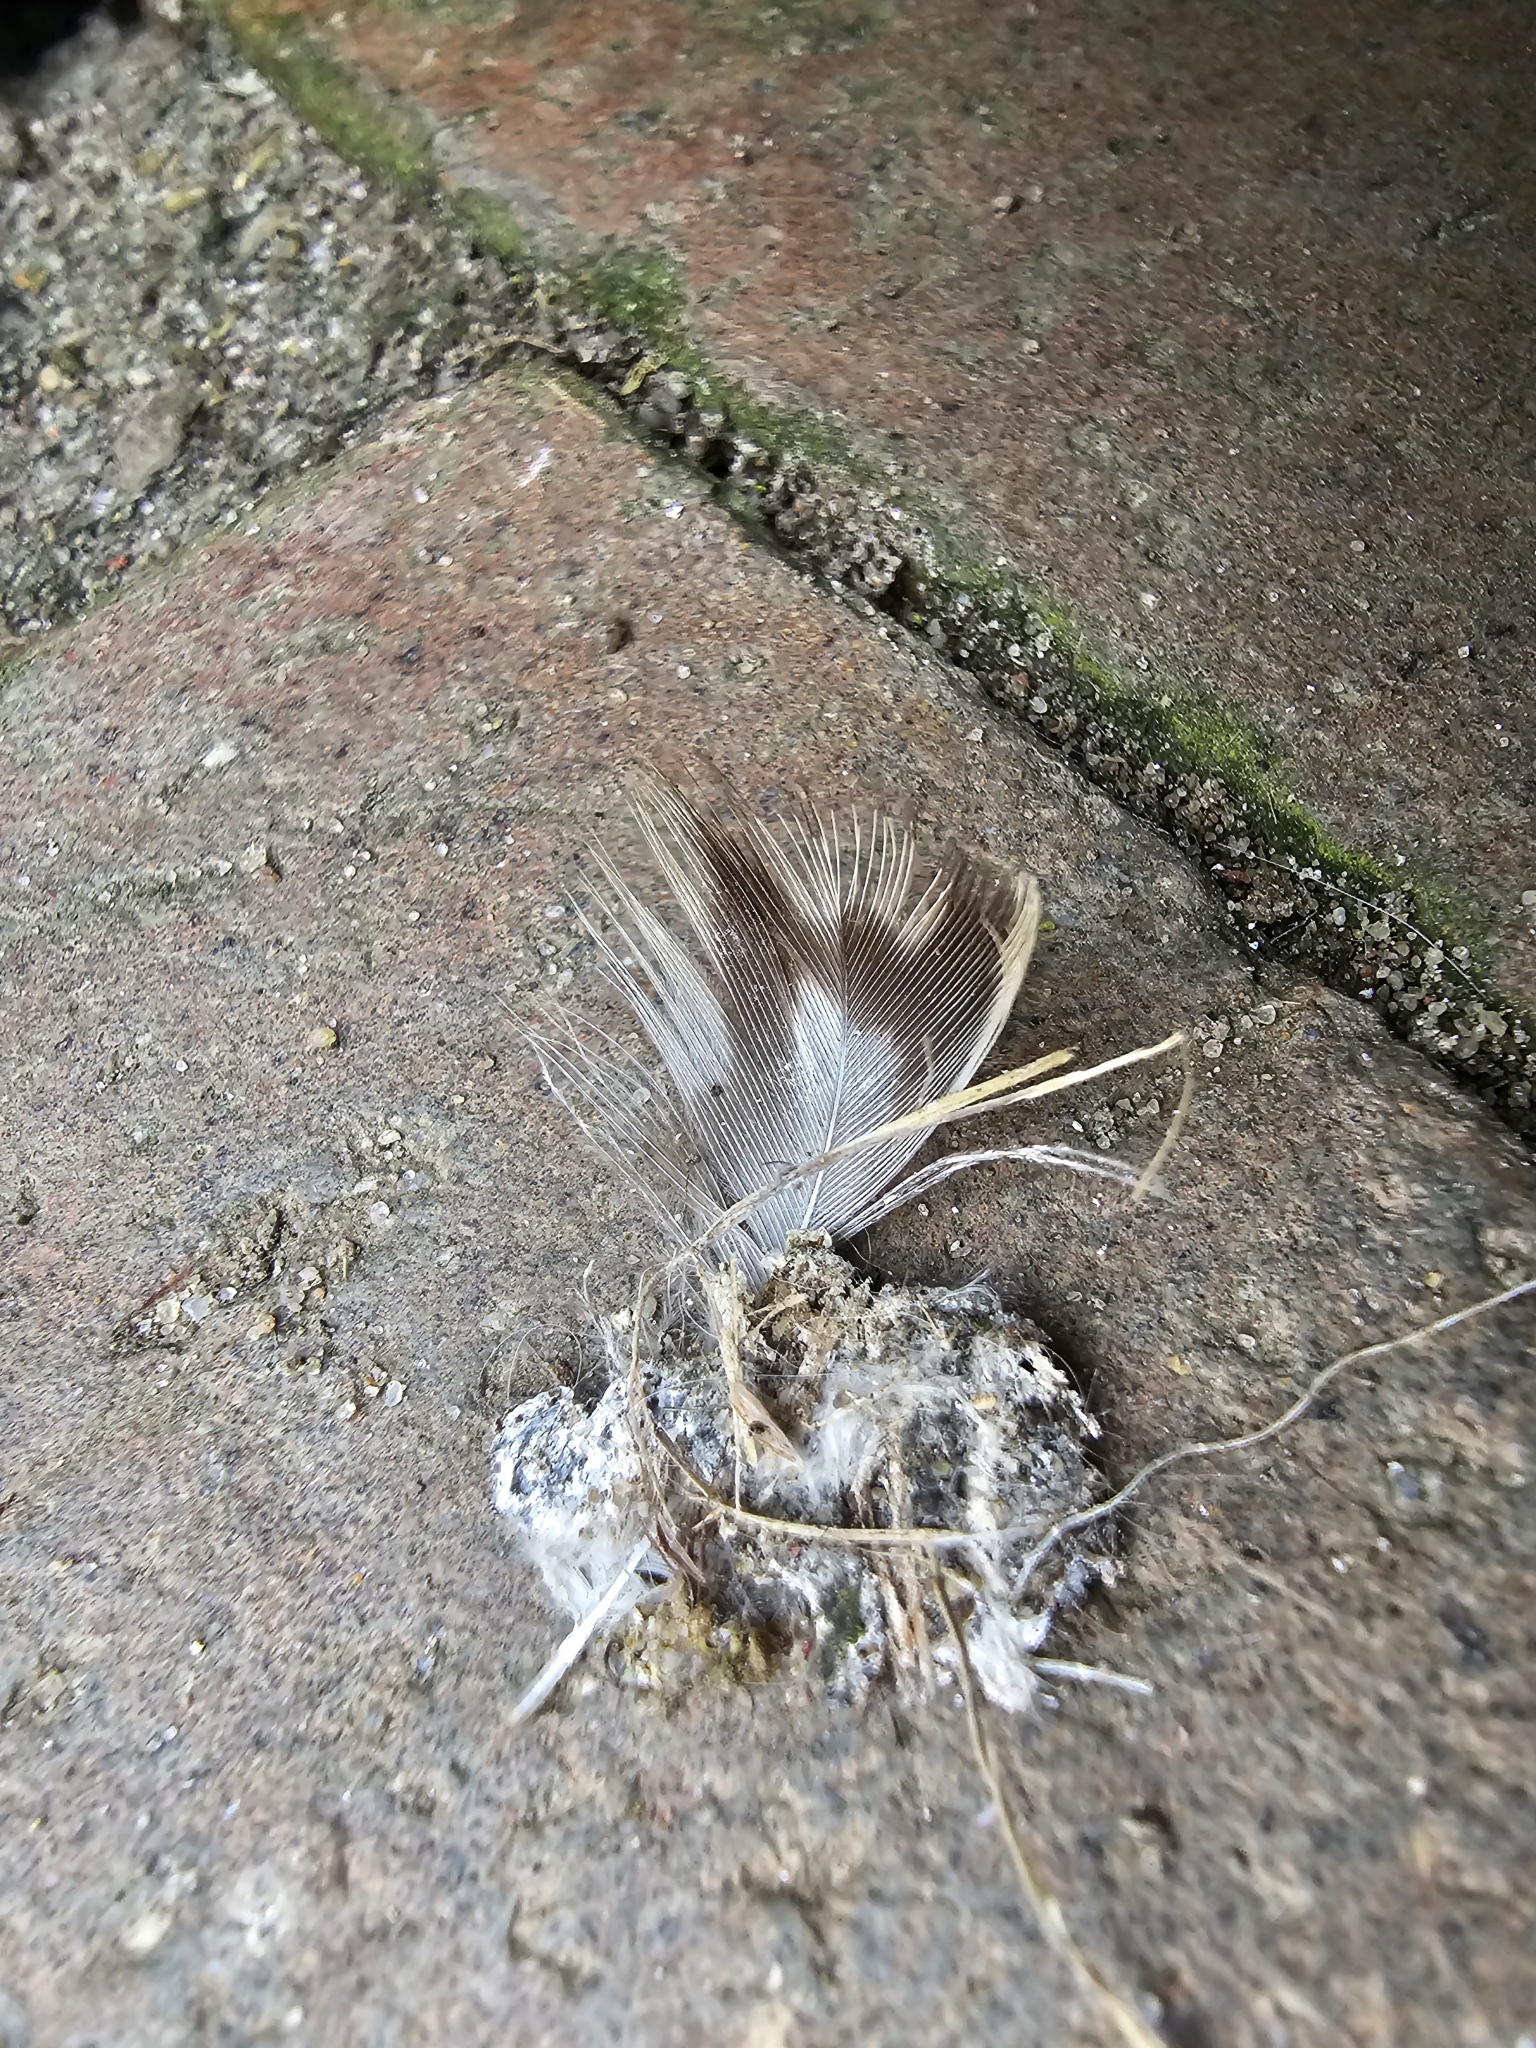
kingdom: Animalia
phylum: Chordata
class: Aves
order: Anseriformes
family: Anatidae
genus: Anas
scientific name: Anas platyrhynchos
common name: Mallard
